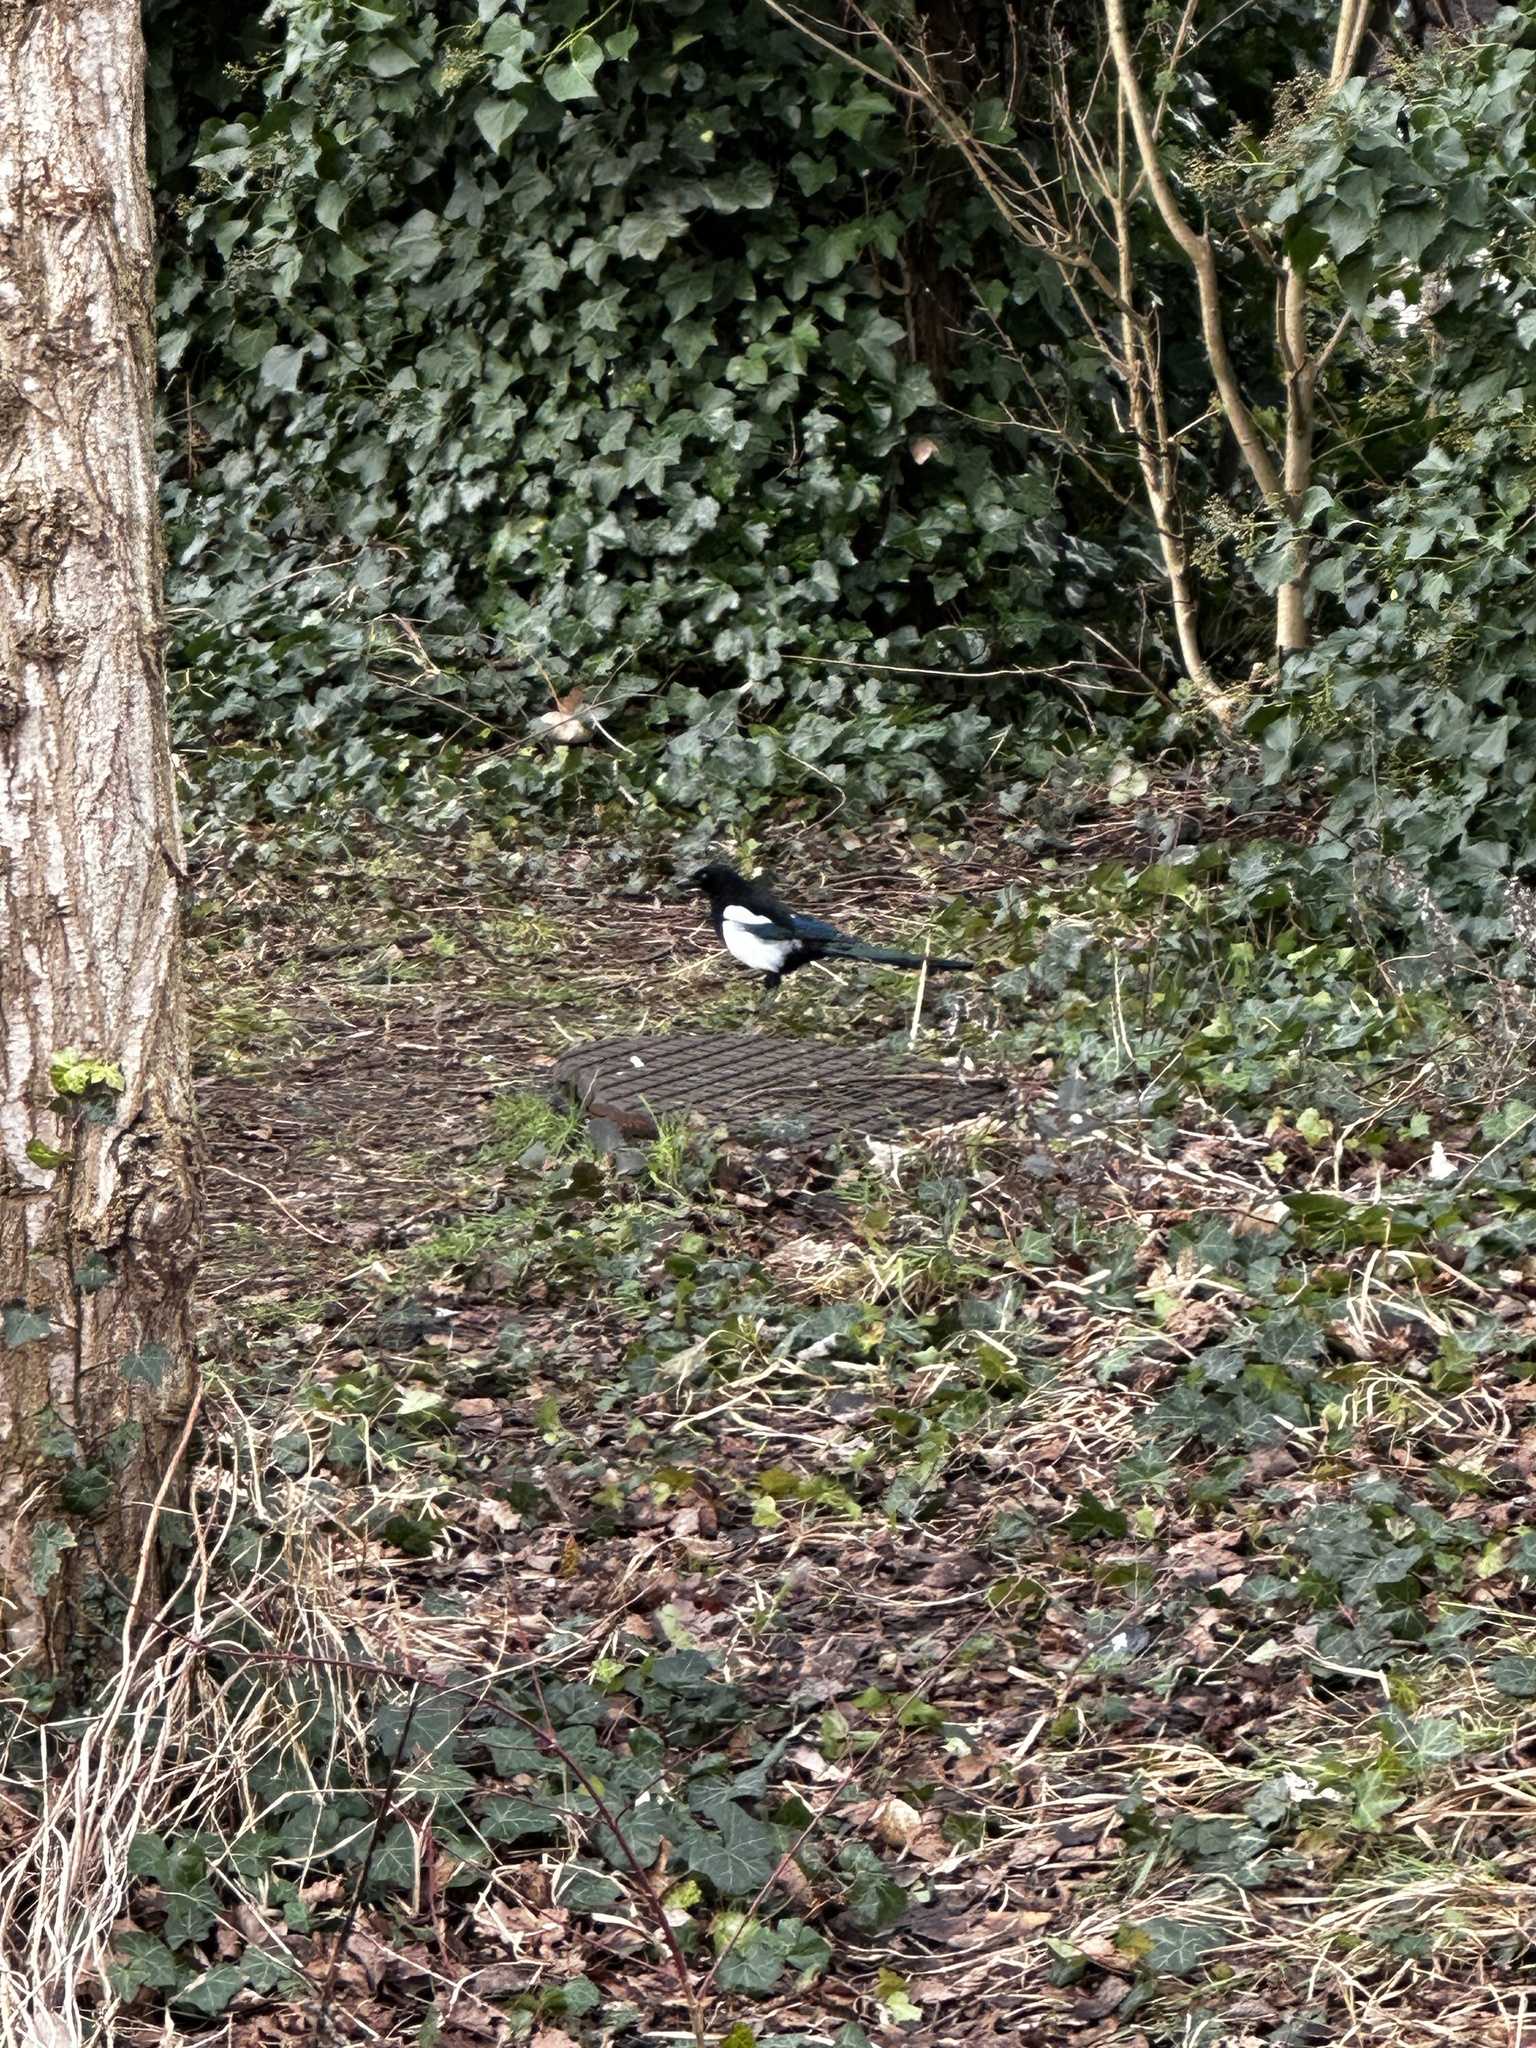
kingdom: Animalia
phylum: Chordata
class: Aves
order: Passeriformes
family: Corvidae
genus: Pica
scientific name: Pica pica
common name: Eurasian magpie
